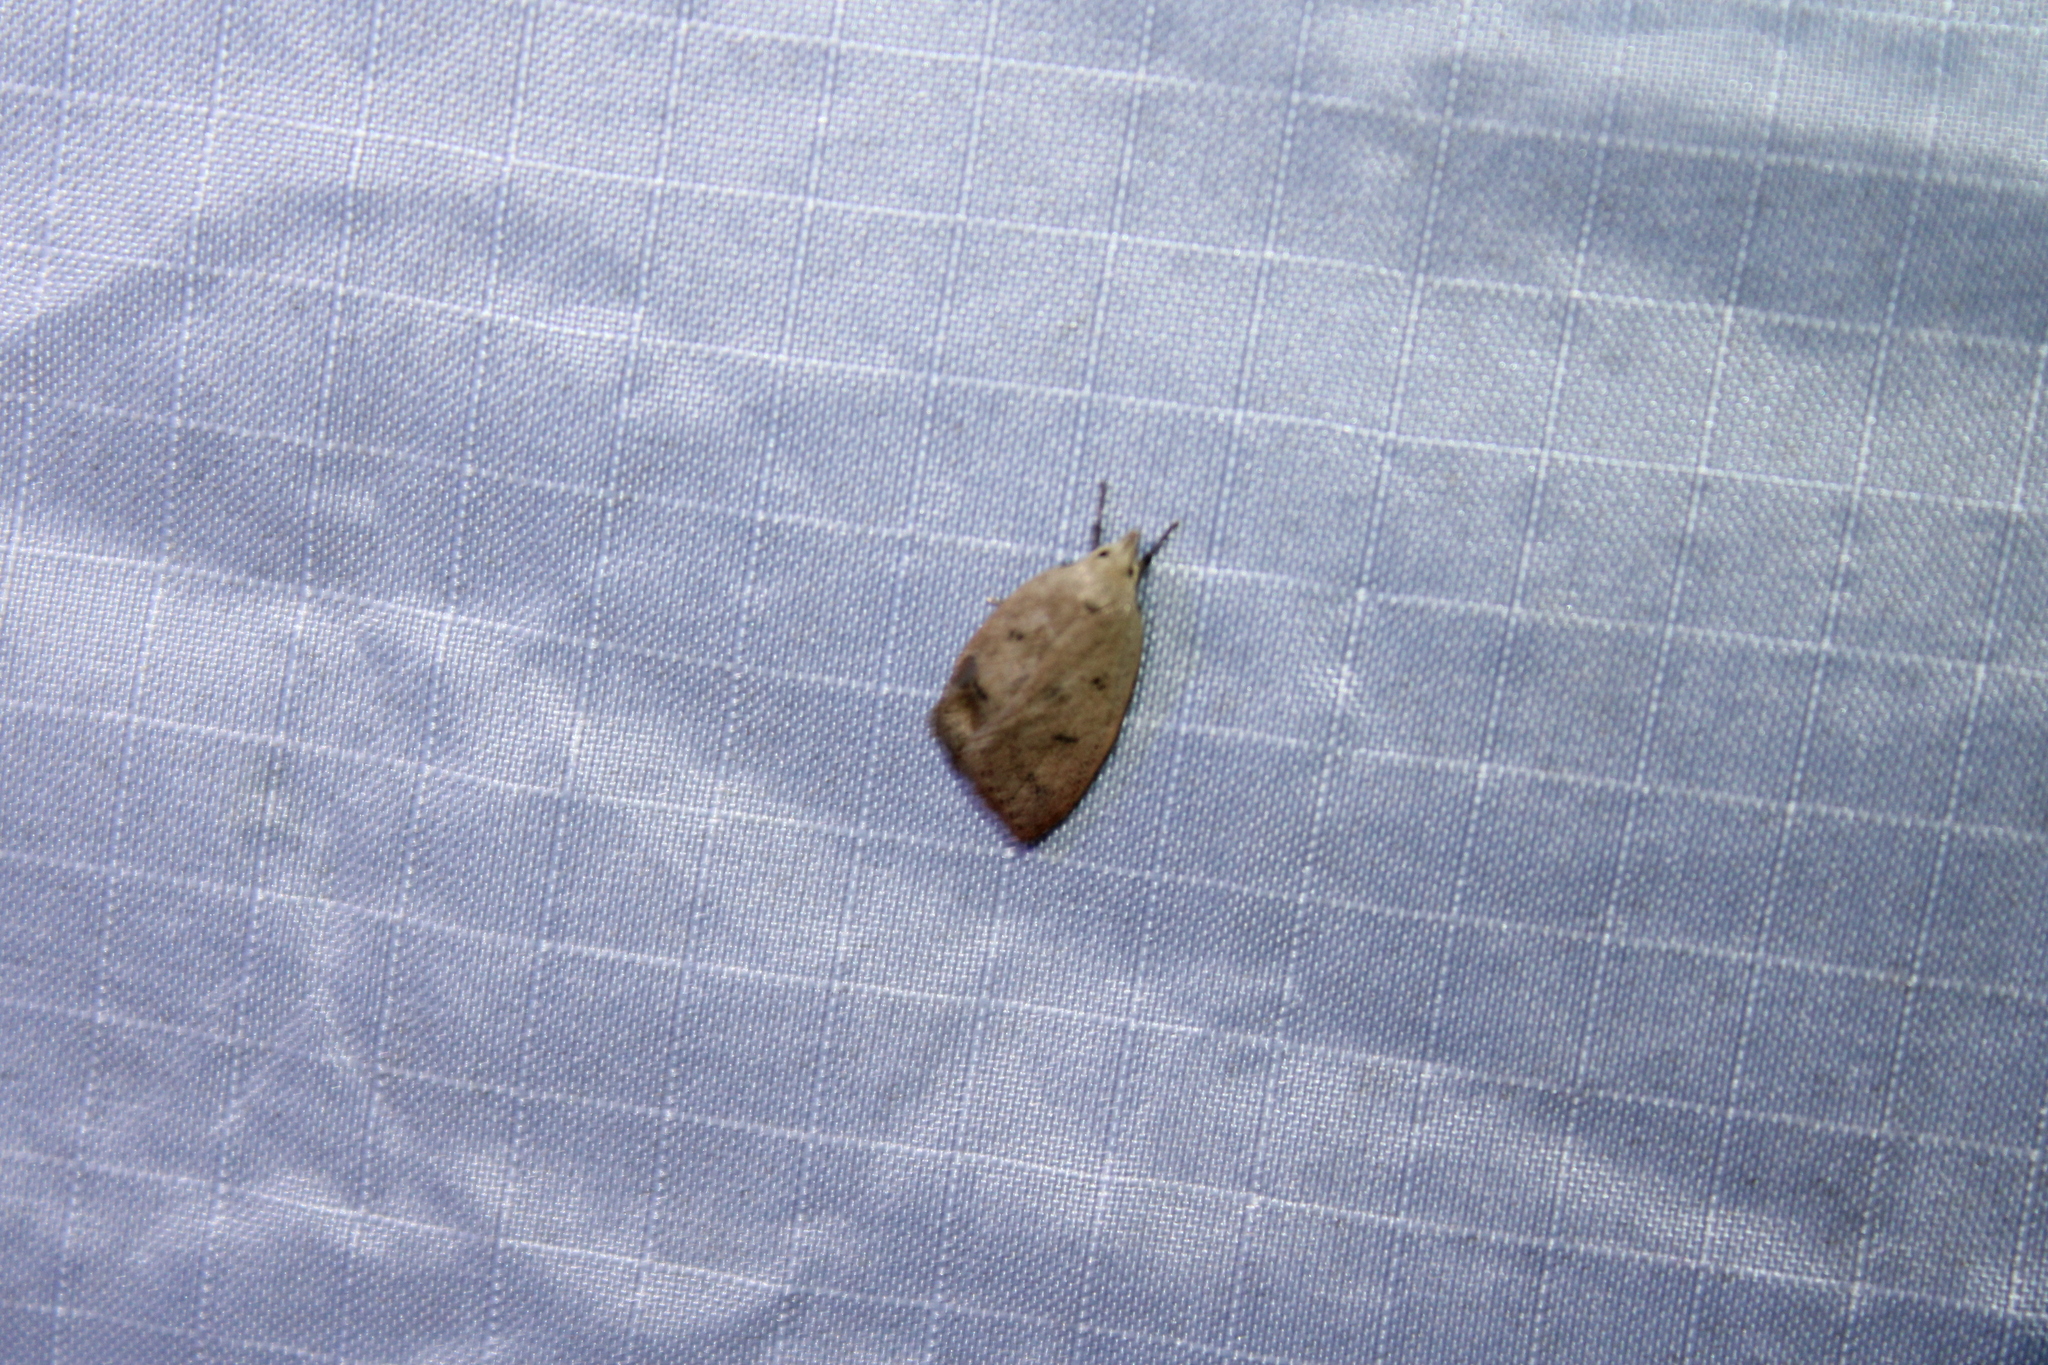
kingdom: Animalia
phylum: Arthropoda
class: Insecta
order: Lepidoptera
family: Peleopodidae
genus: Machimia
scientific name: Machimia tentoriferella
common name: Gold-striped leaftier moth
